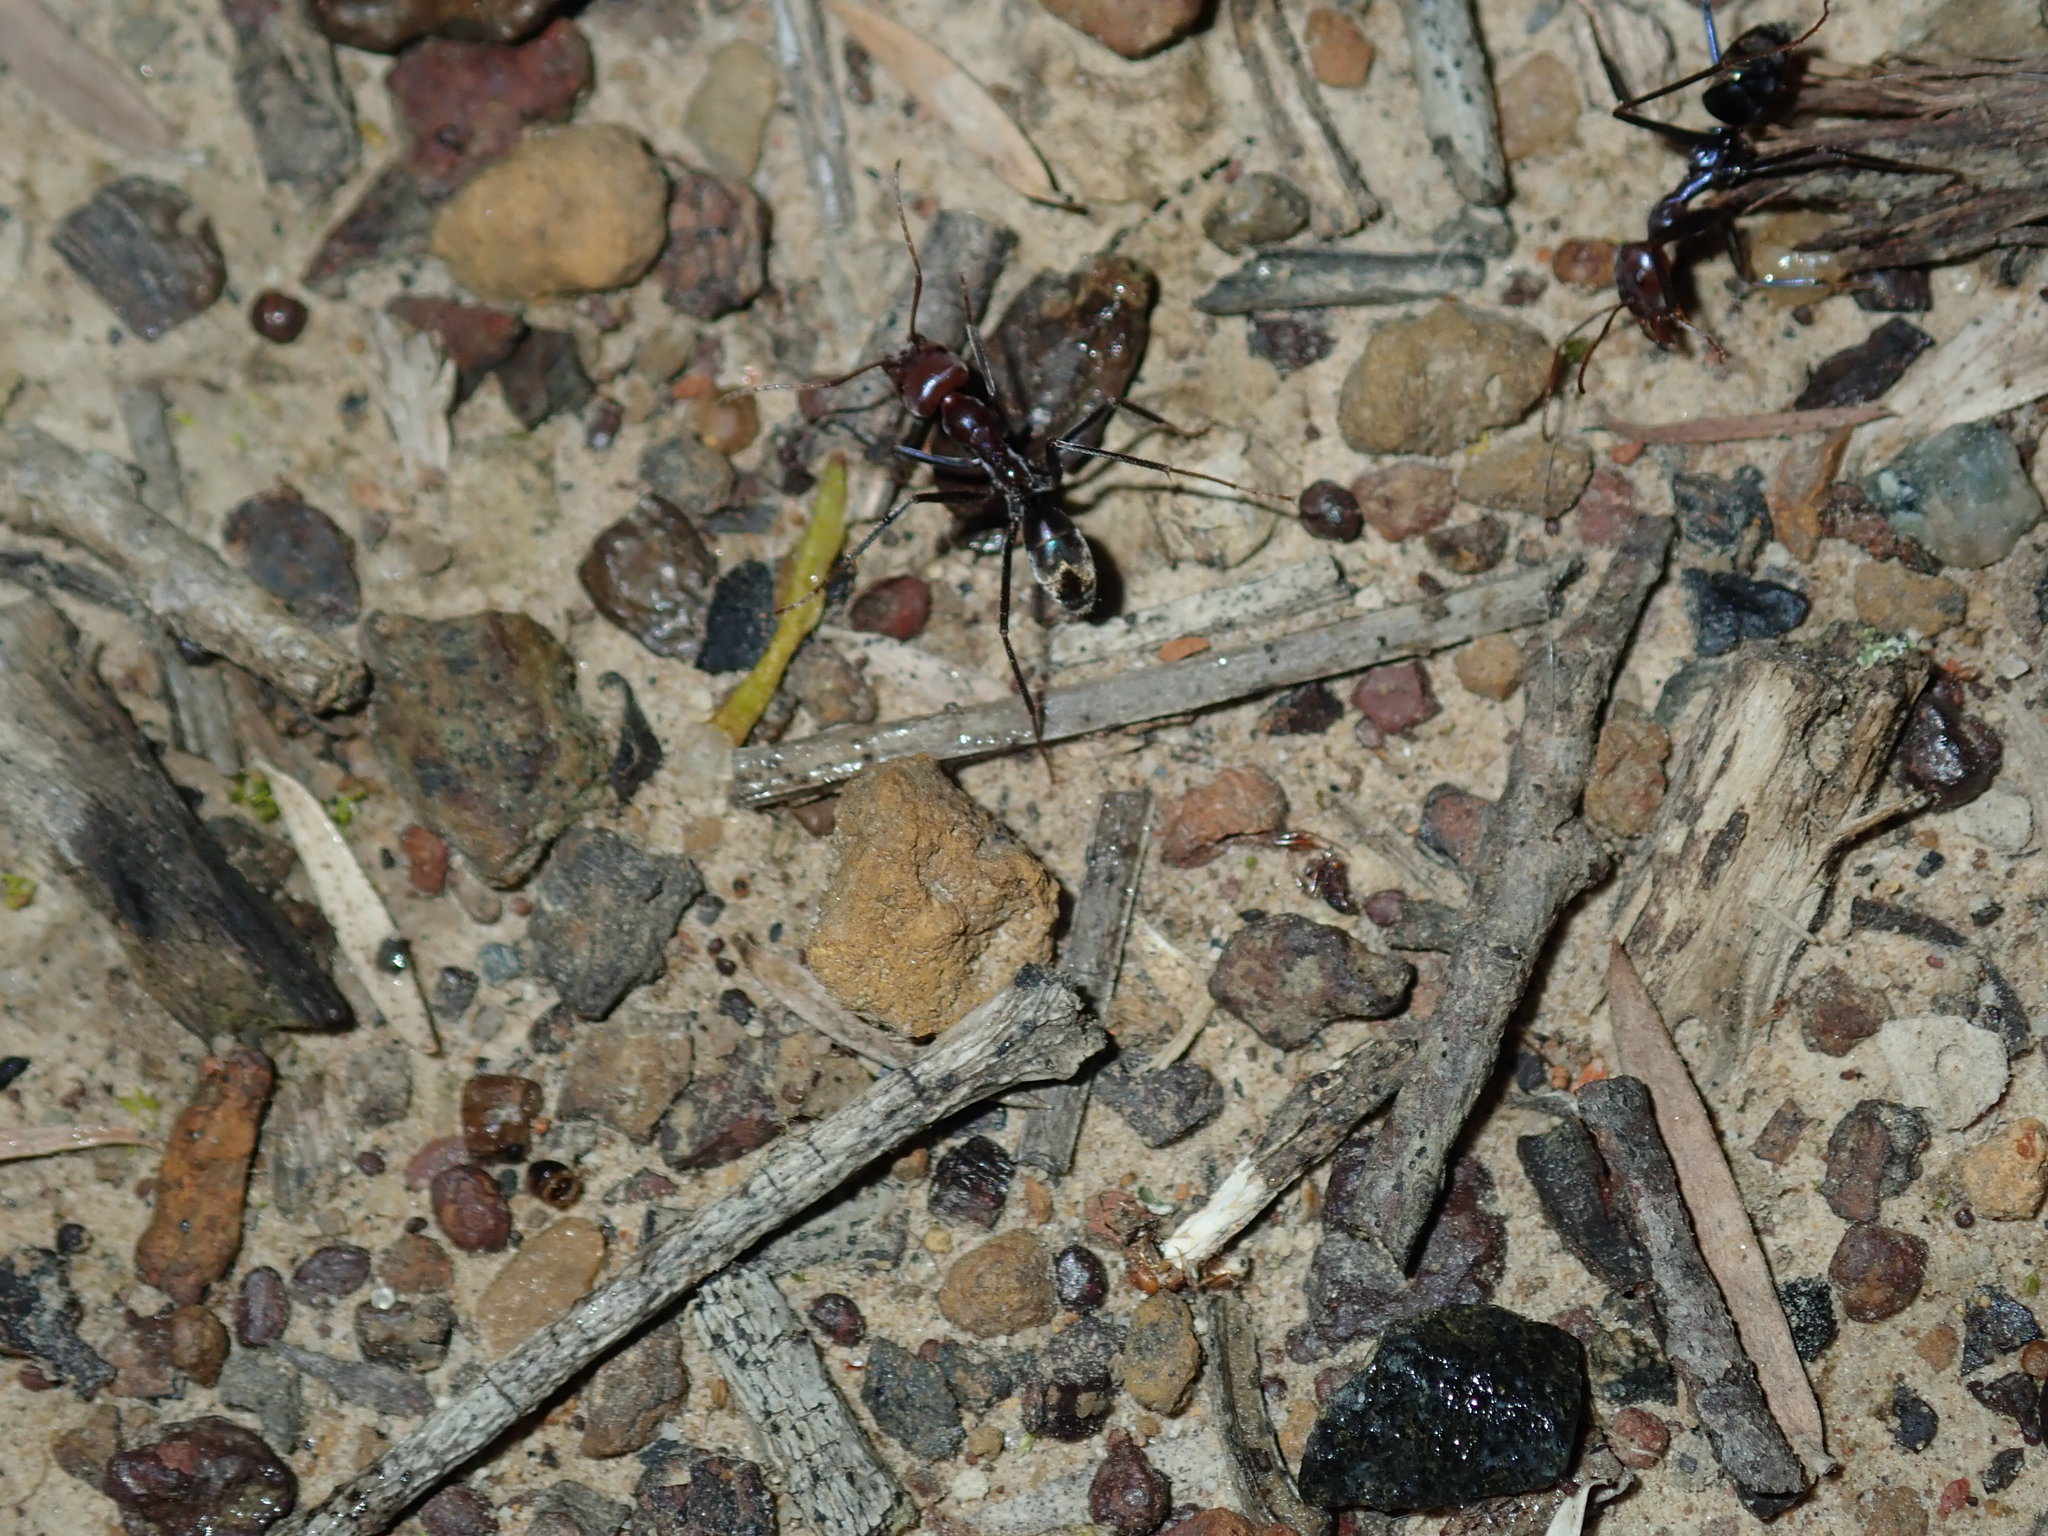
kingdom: Animalia
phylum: Arthropoda
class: Insecta
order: Hymenoptera
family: Formicidae
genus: Iridomyrmex
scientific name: Iridomyrmex purpureus
